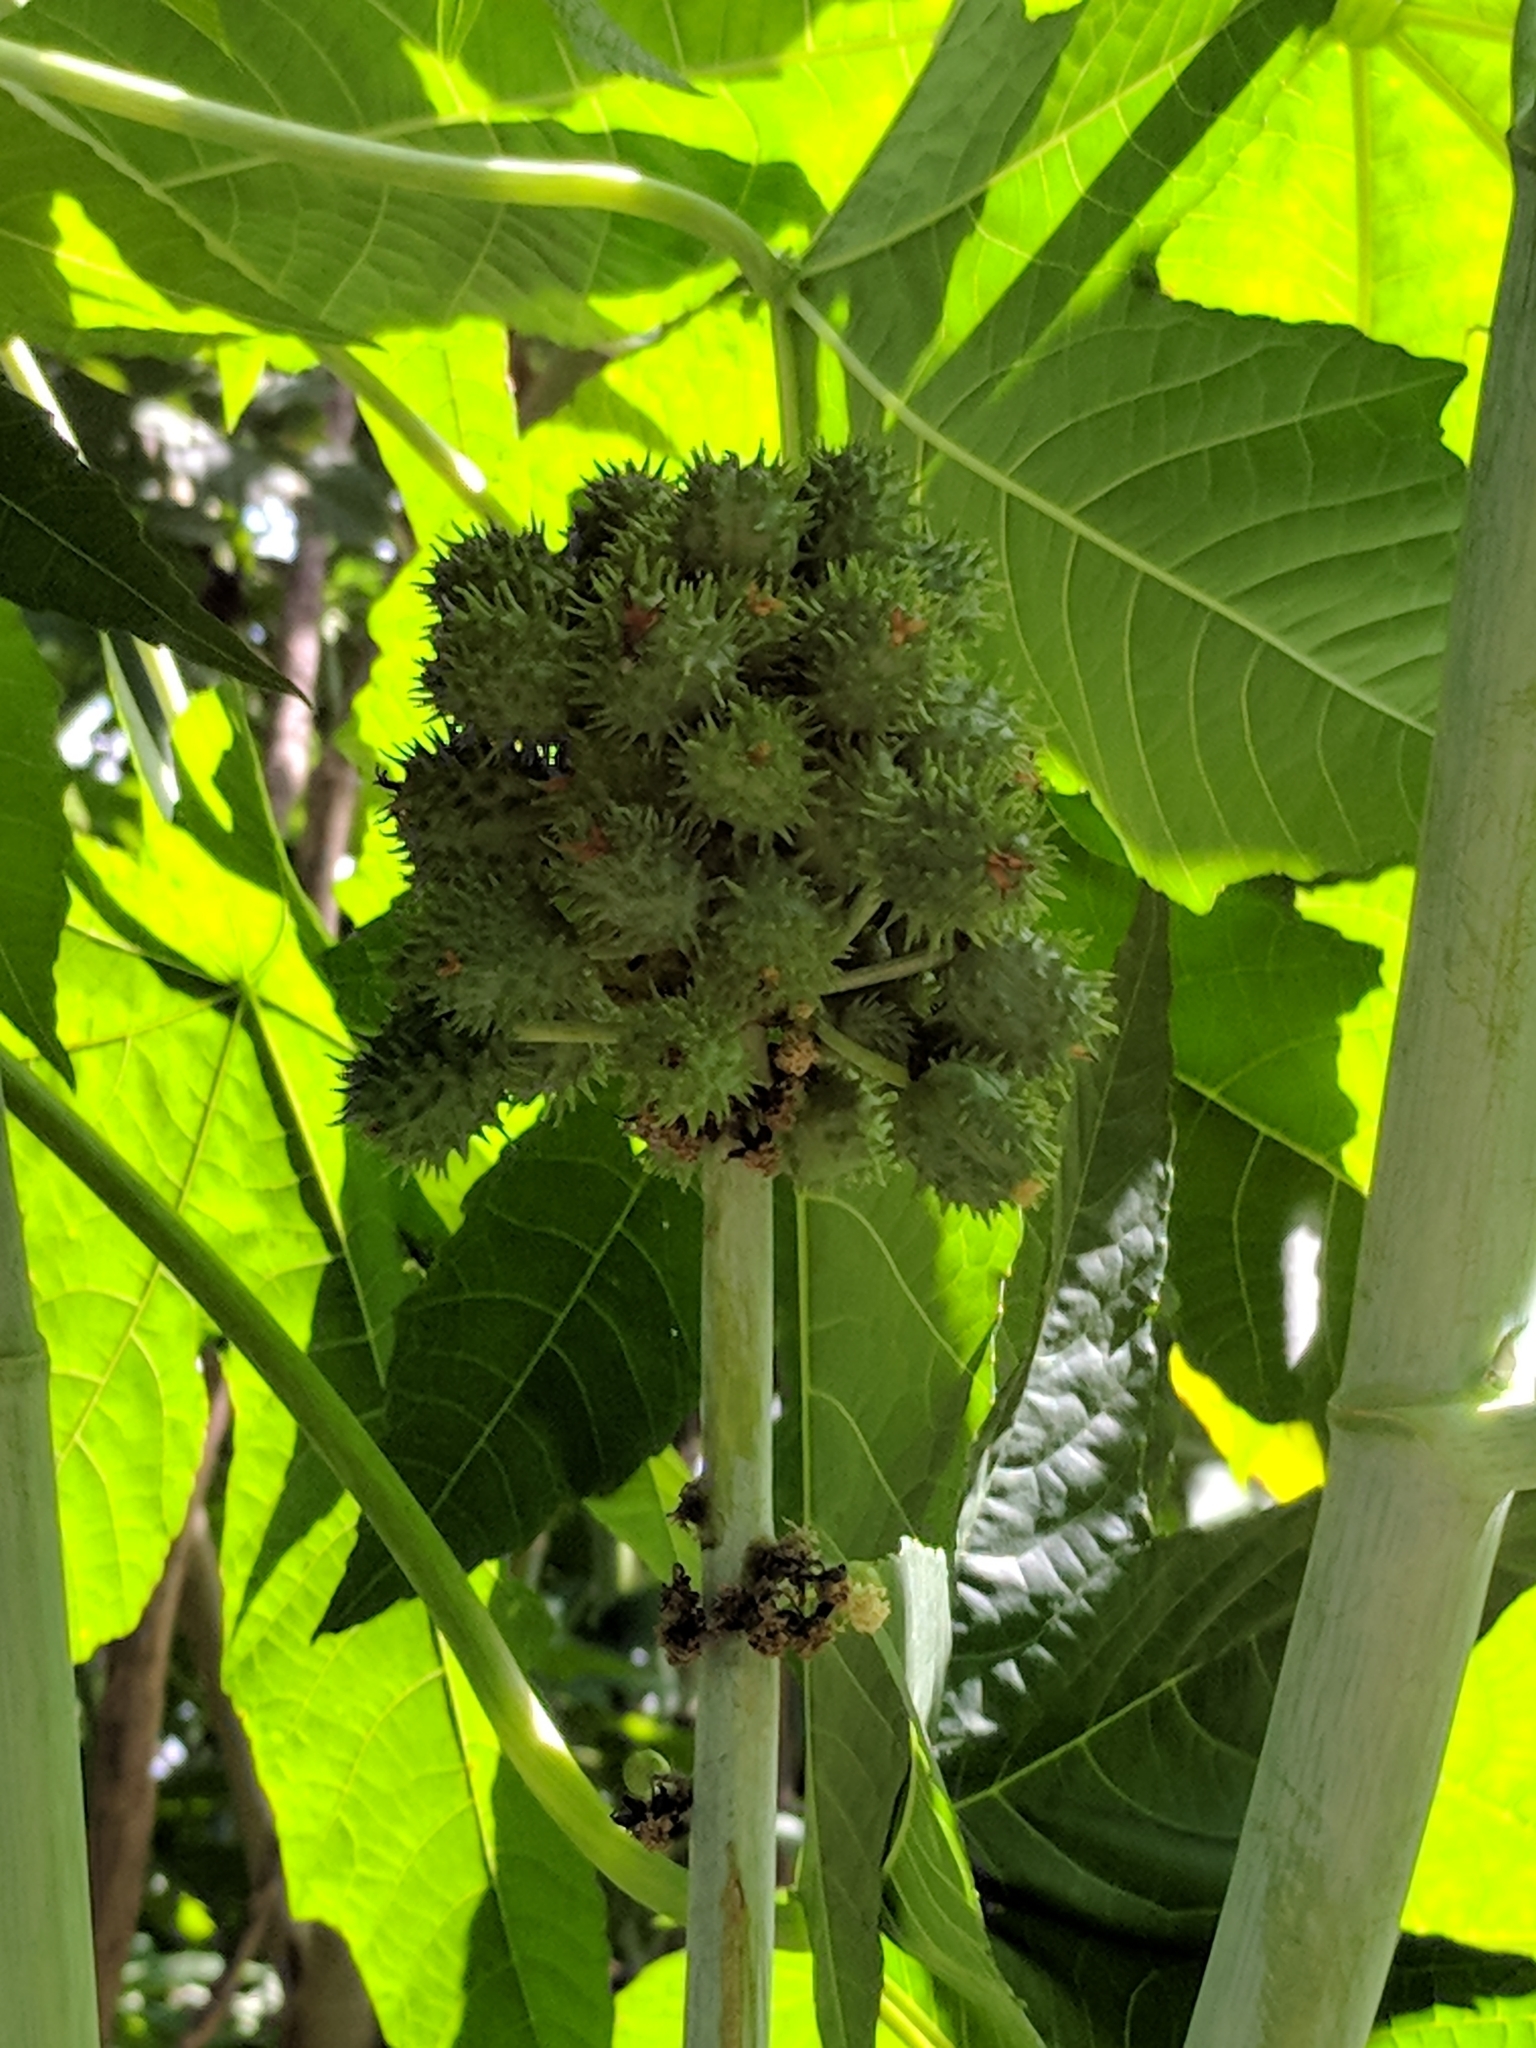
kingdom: Plantae
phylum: Tracheophyta
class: Magnoliopsida
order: Malpighiales
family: Euphorbiaceae
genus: Ricinus
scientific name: Ricinus communis
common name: Castor-oil-plant
